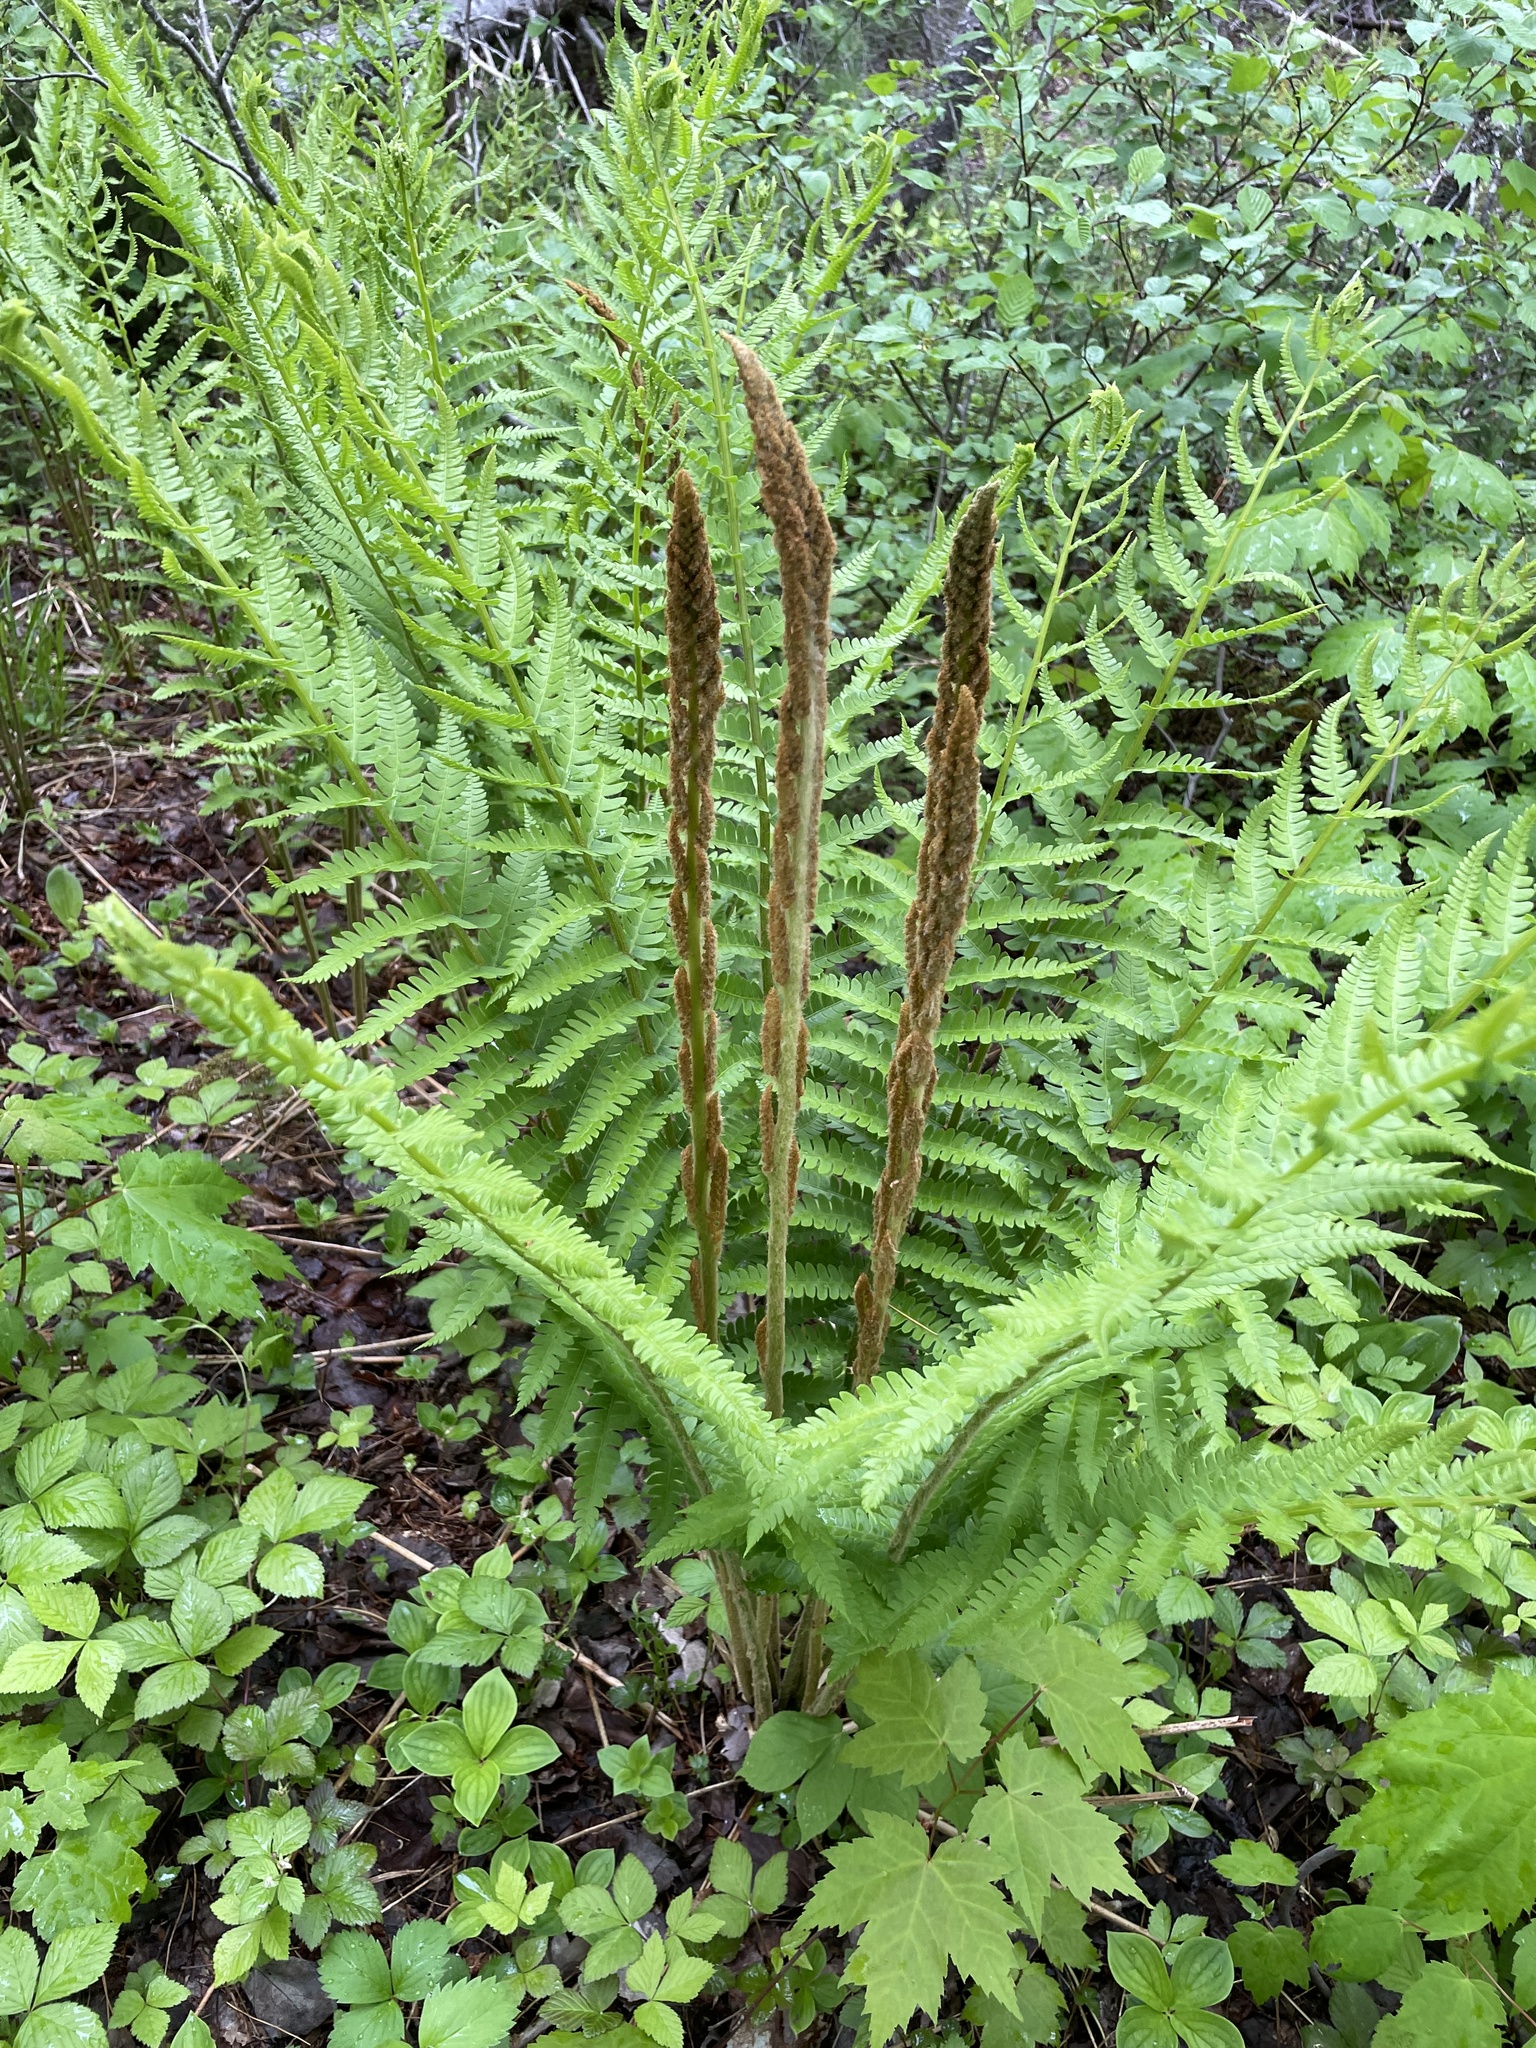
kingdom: Plantae
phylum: Tracheophyta
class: Polypodiopsida
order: Osmundales
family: Osmundaceae
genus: Osmundastrum
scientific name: Osmundastrum cinnamomeum
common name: Cinnamon fern
